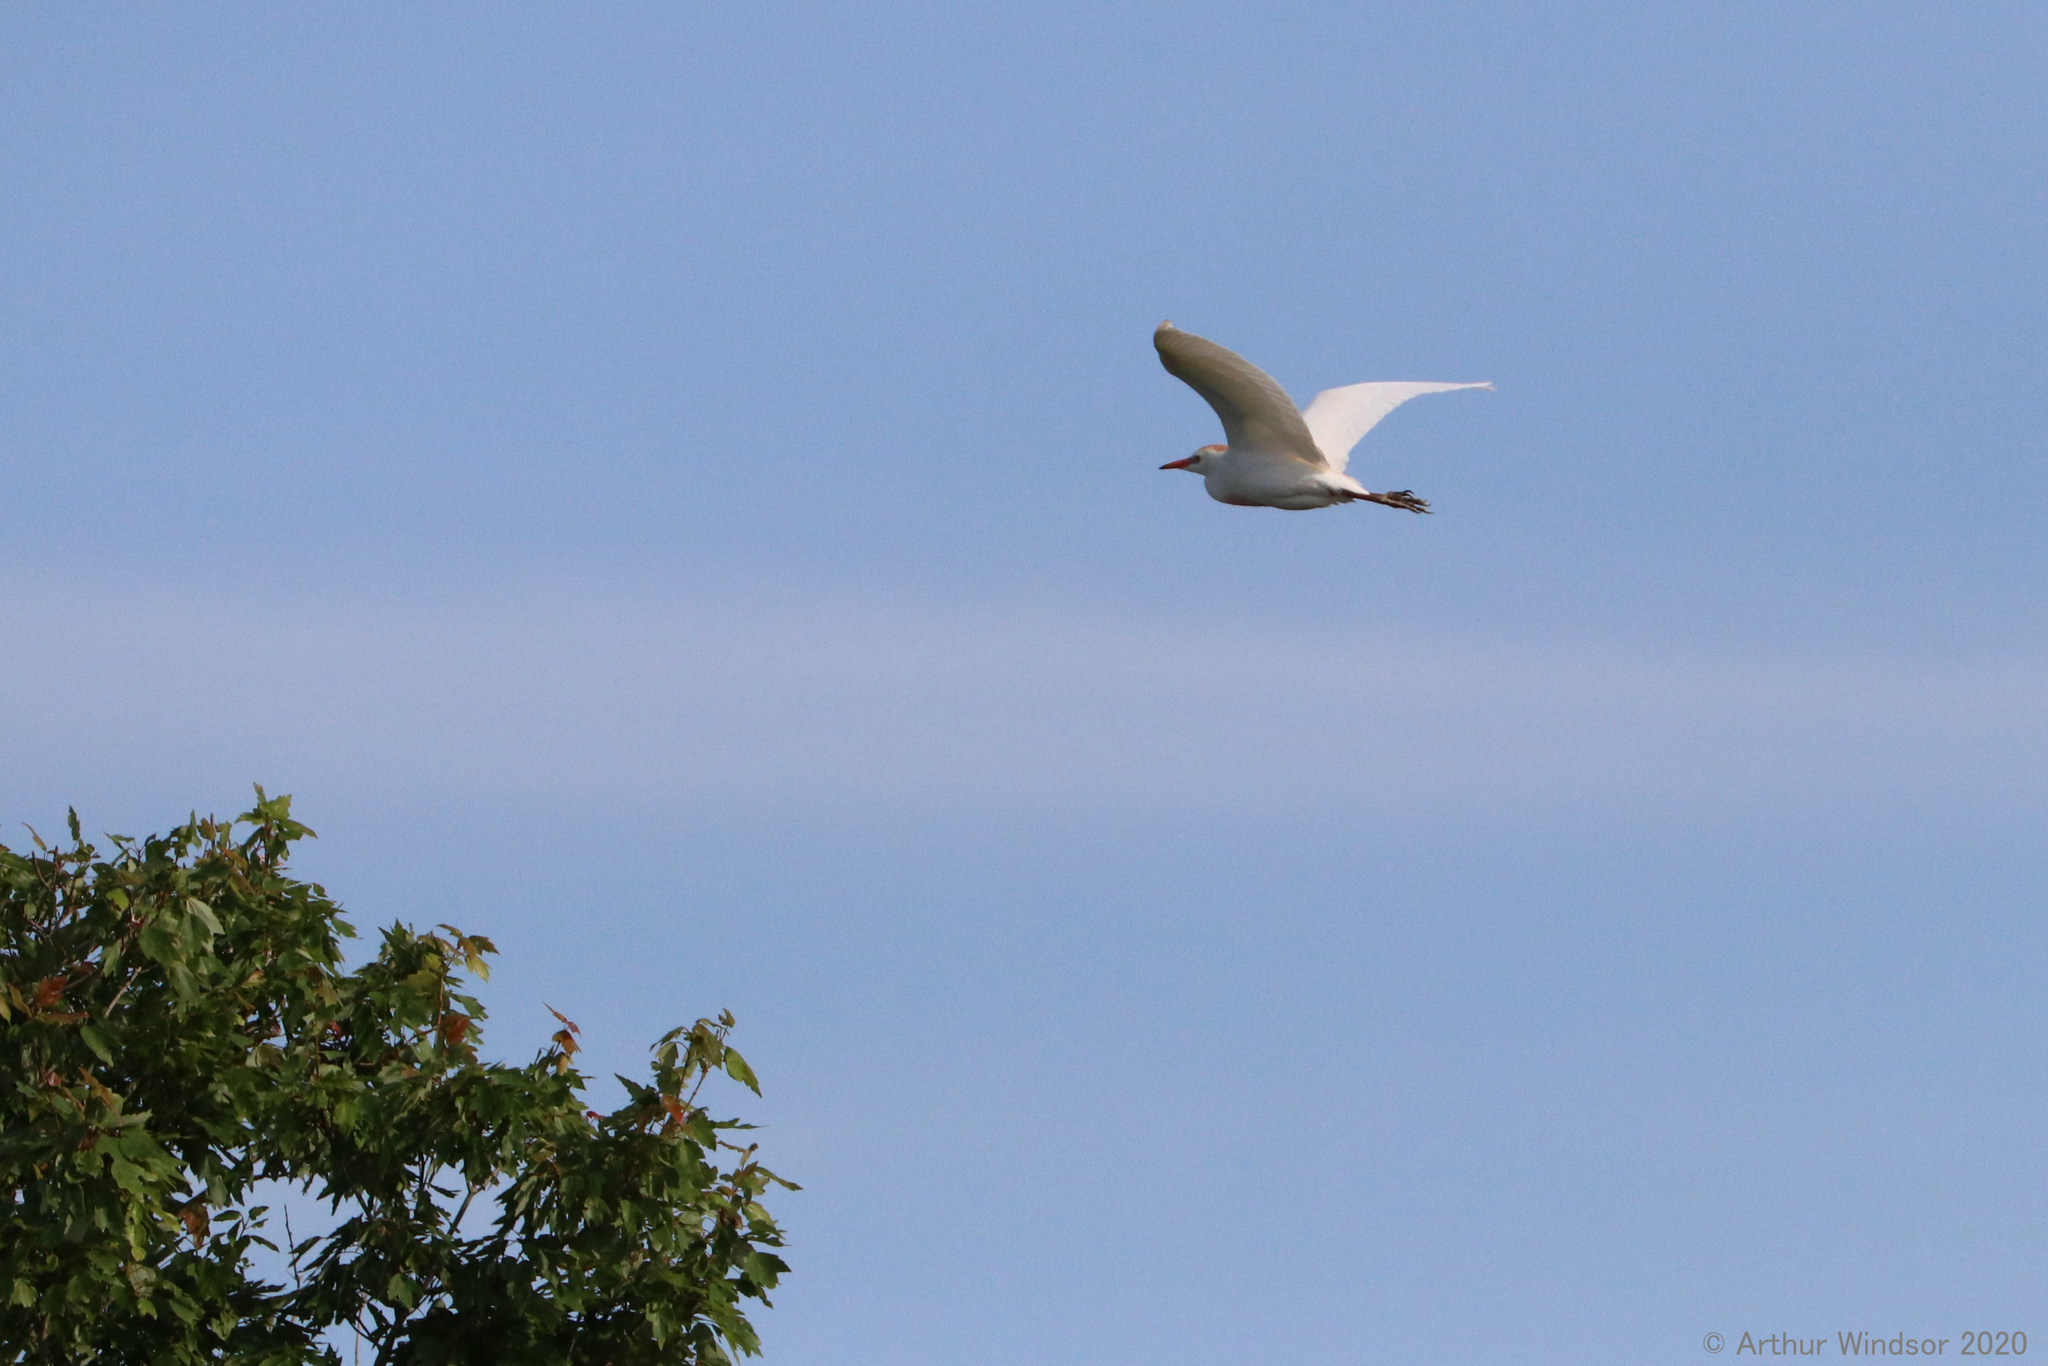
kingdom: Animalia
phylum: Chordata
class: Aves
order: Pelecaniformes
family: Ardeidae
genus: Bubulcus
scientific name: Bubulcus ibis
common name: Cattle egret
